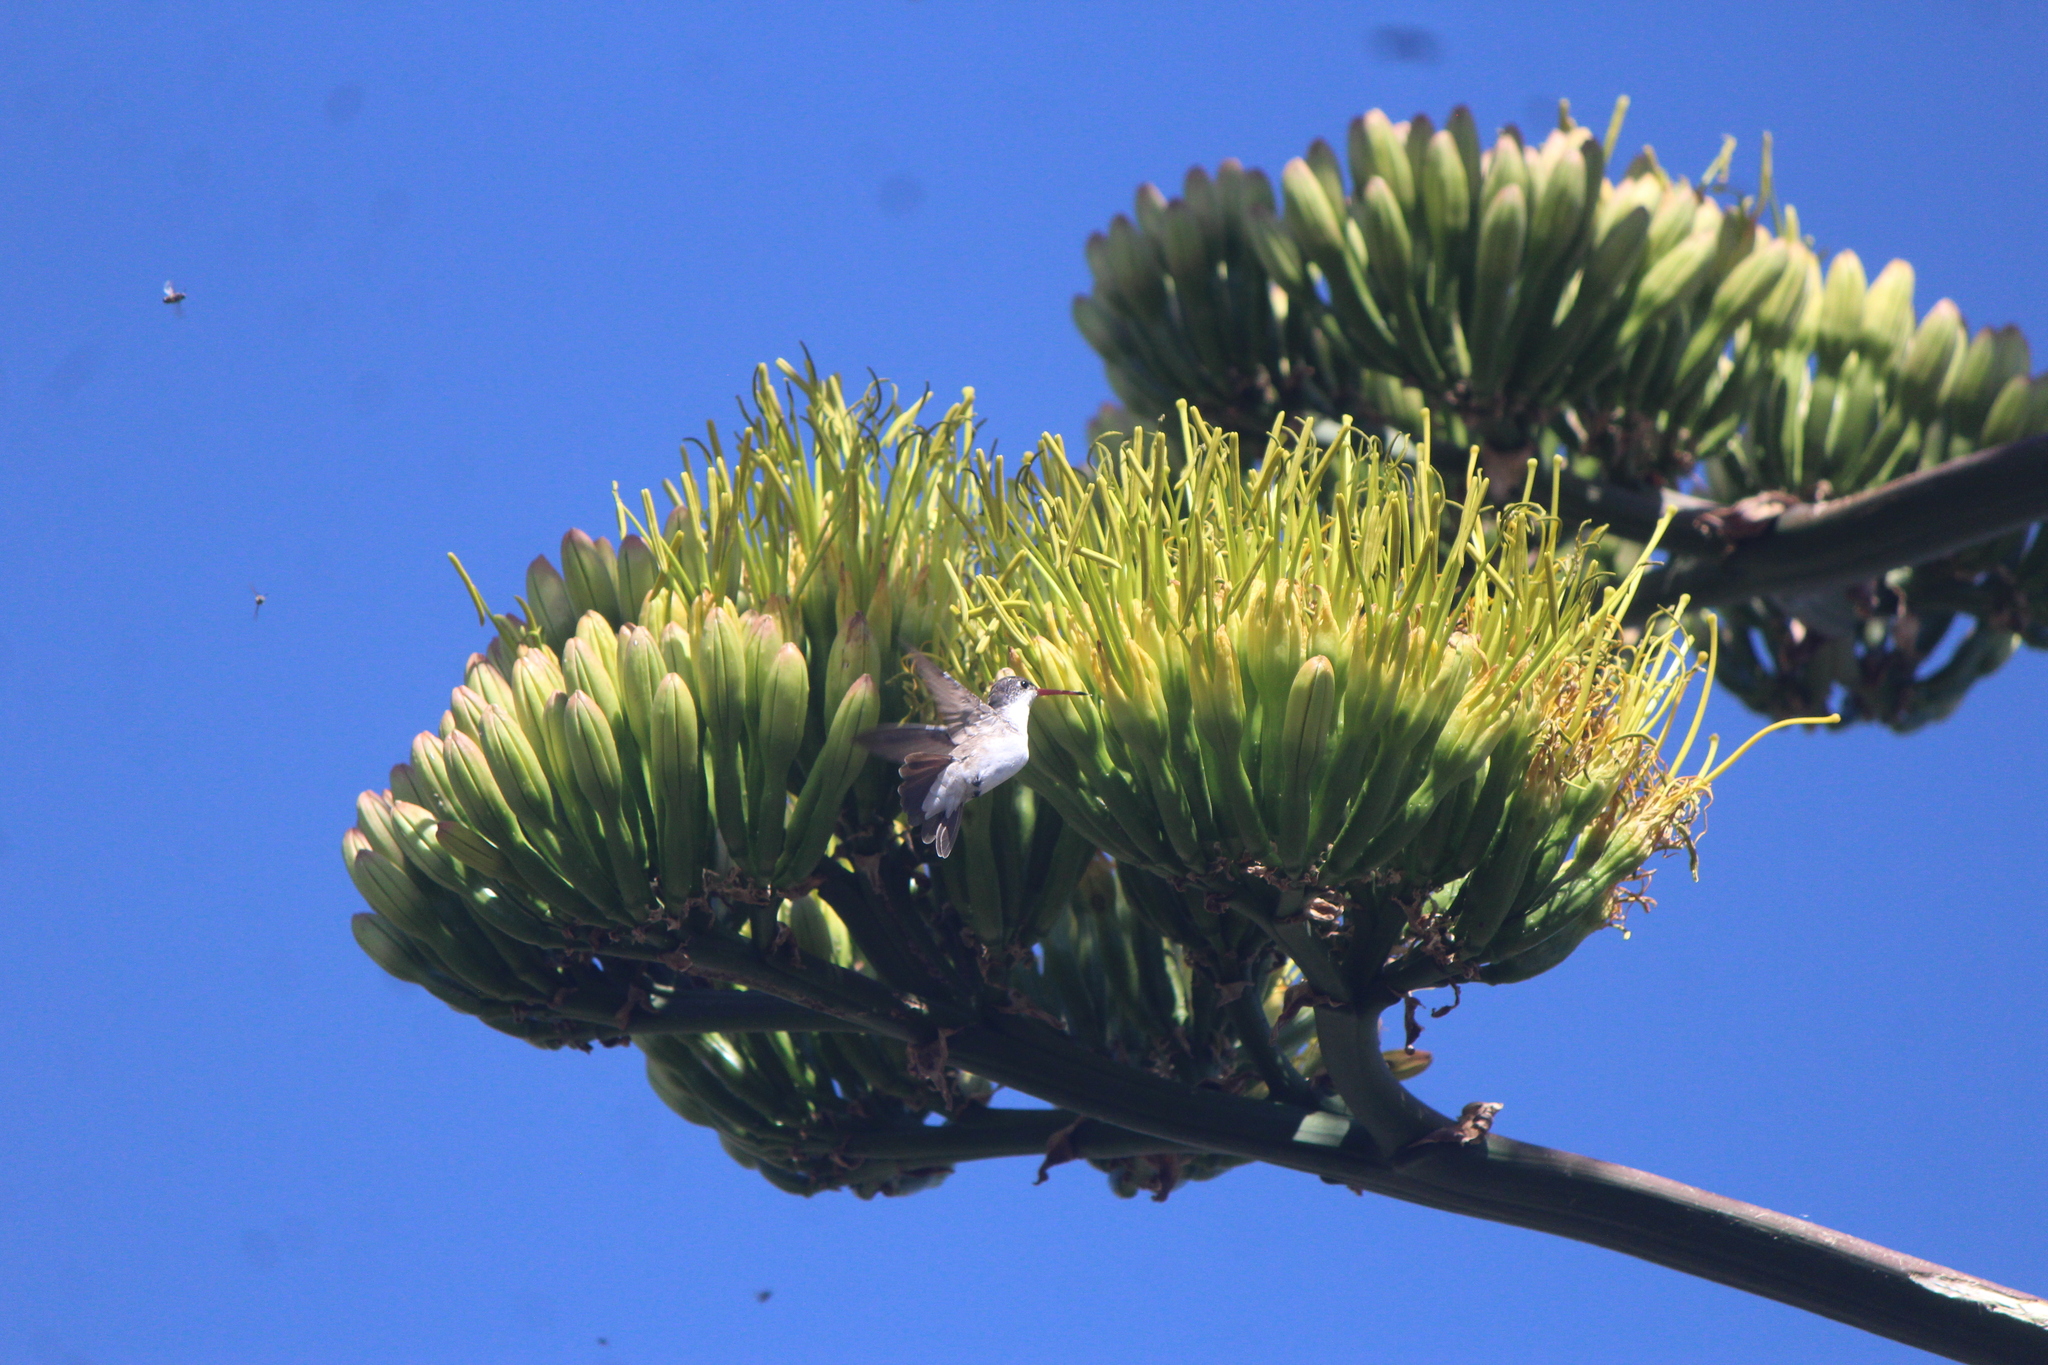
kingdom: Animalia
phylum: Chordata
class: Aves
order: Apodiformes
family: Trochilidae
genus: Leucolia
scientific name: Leucolia violiceps
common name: Violet-crowned hummingbird
